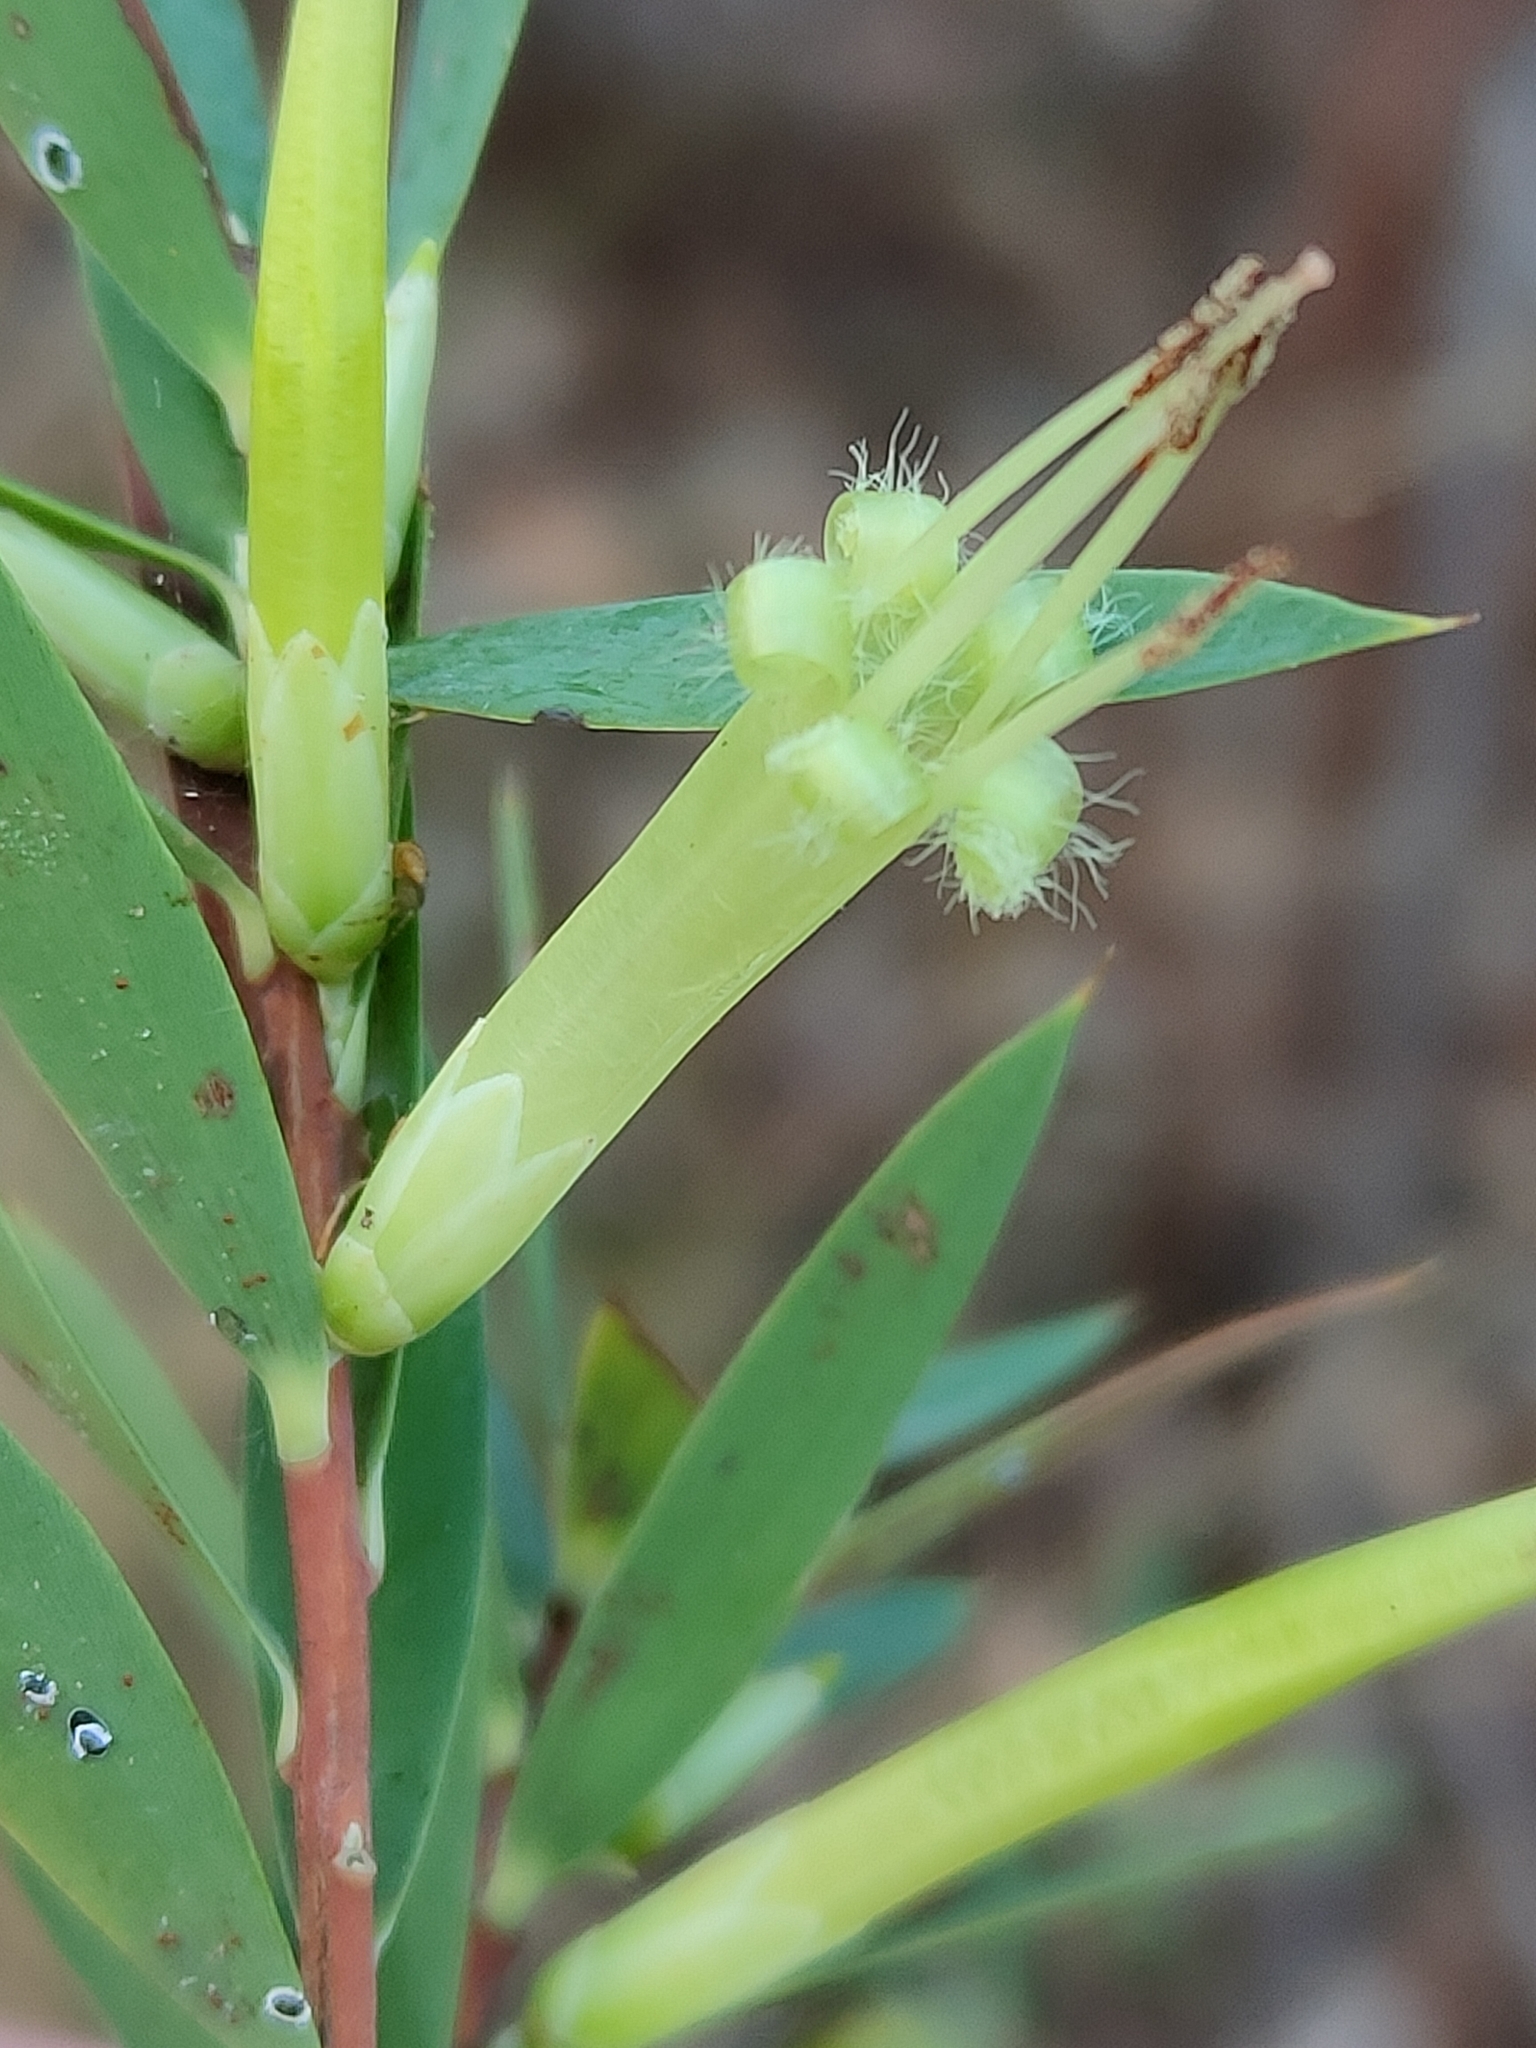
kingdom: Plantae
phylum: Tracheophyta
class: Magnoliopsida
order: Ericales
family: Ericaceae
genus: Styphelia
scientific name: Styphelia viridis
